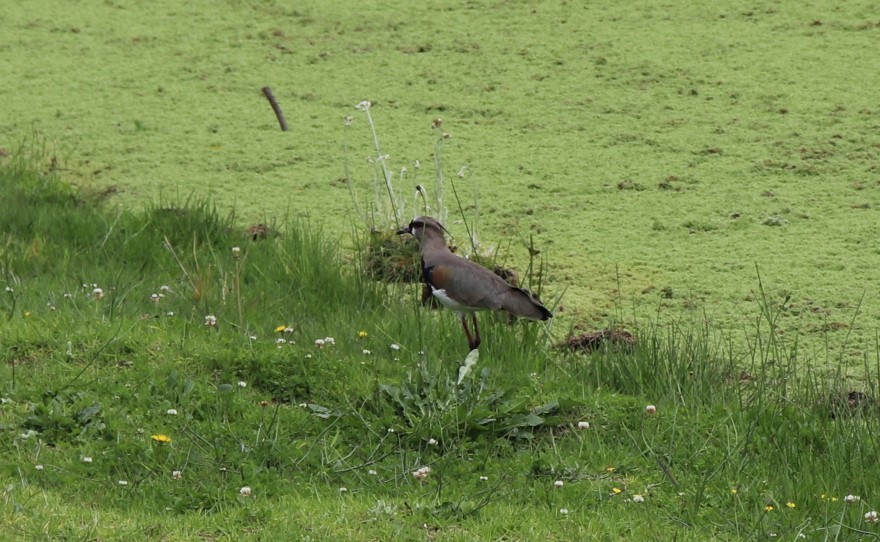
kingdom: Animalia
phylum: Chordata
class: Aves
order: Charadriiformes
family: Charadriidae
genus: Vanellus
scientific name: Vanellus chilensis
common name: Southern lapwing
